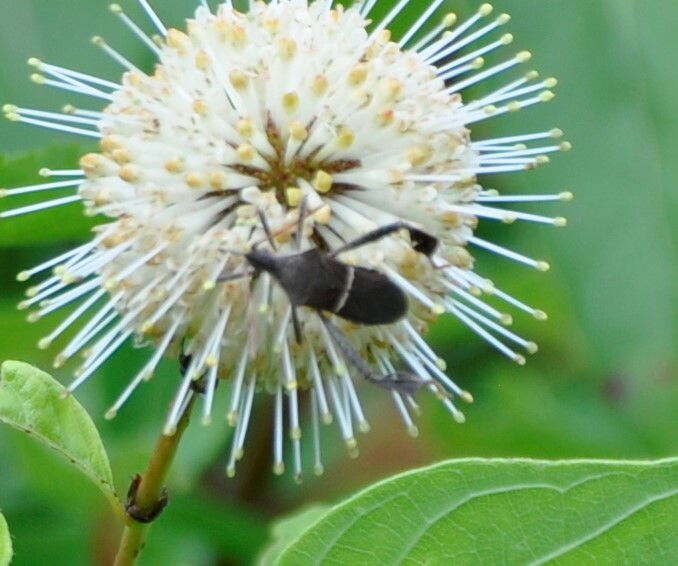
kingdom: Animalia
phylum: Arthropoda
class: Insecta
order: Hemiptera
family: Coreidae
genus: Leptoglossus
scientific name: Leptoglossus phyllopus
